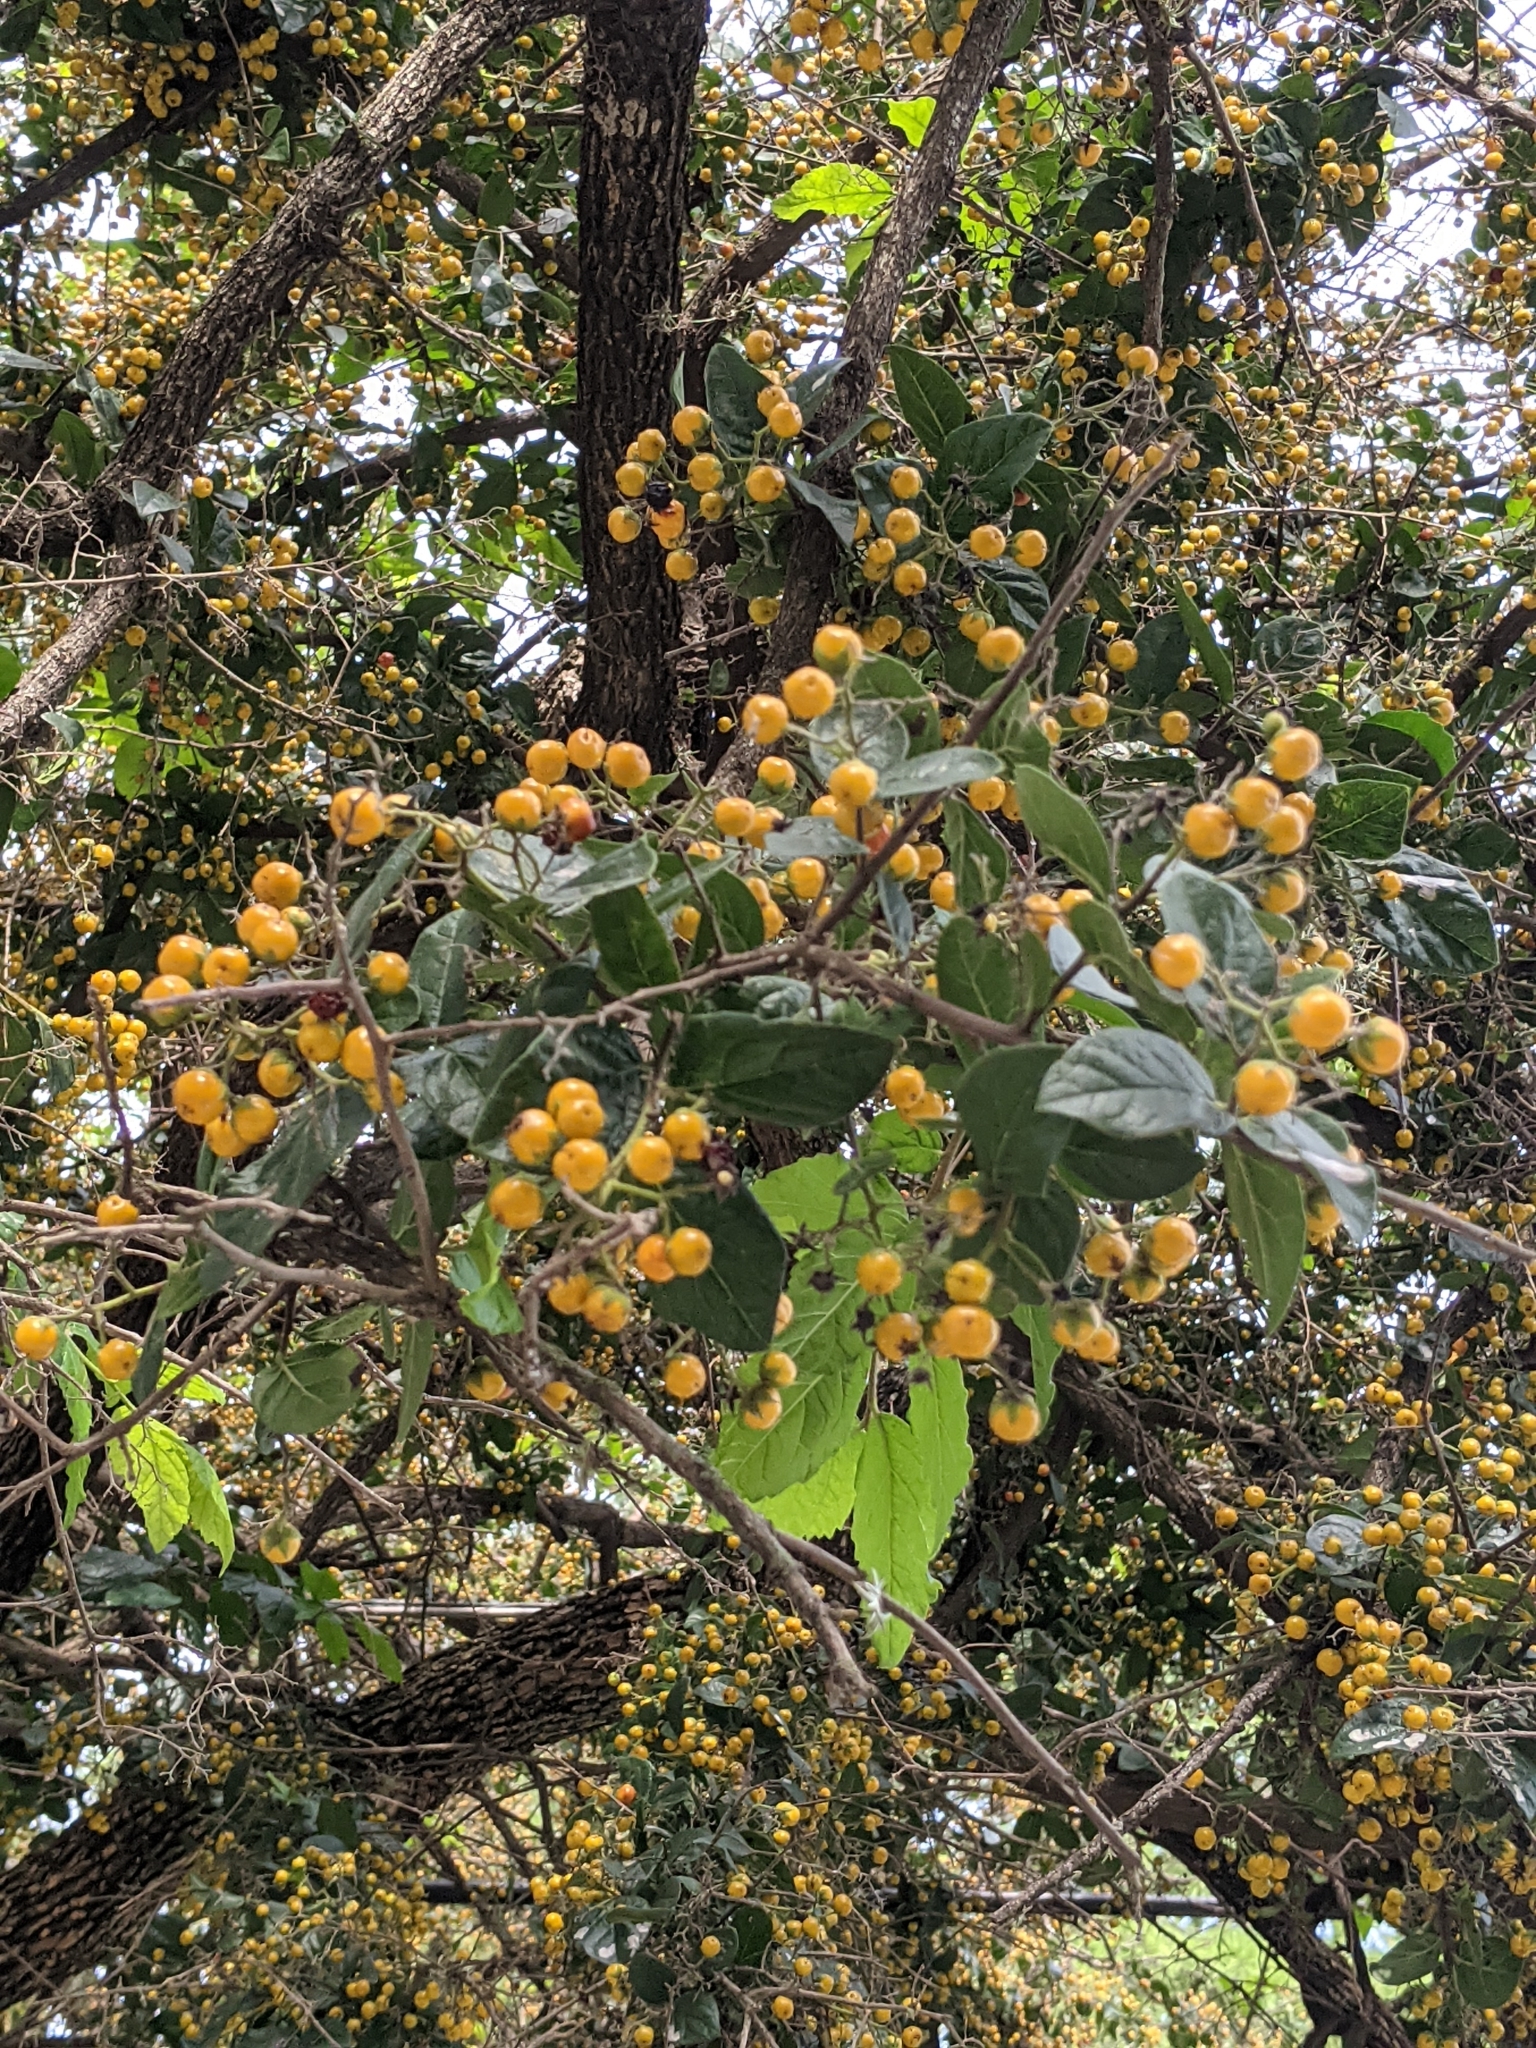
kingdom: Plantae
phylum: Tracheophyta
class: Magnoliopsida
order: Boraginales
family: Ehretiaceae
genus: Ehretia
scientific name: Ehretia anacua
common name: Sugarberry
